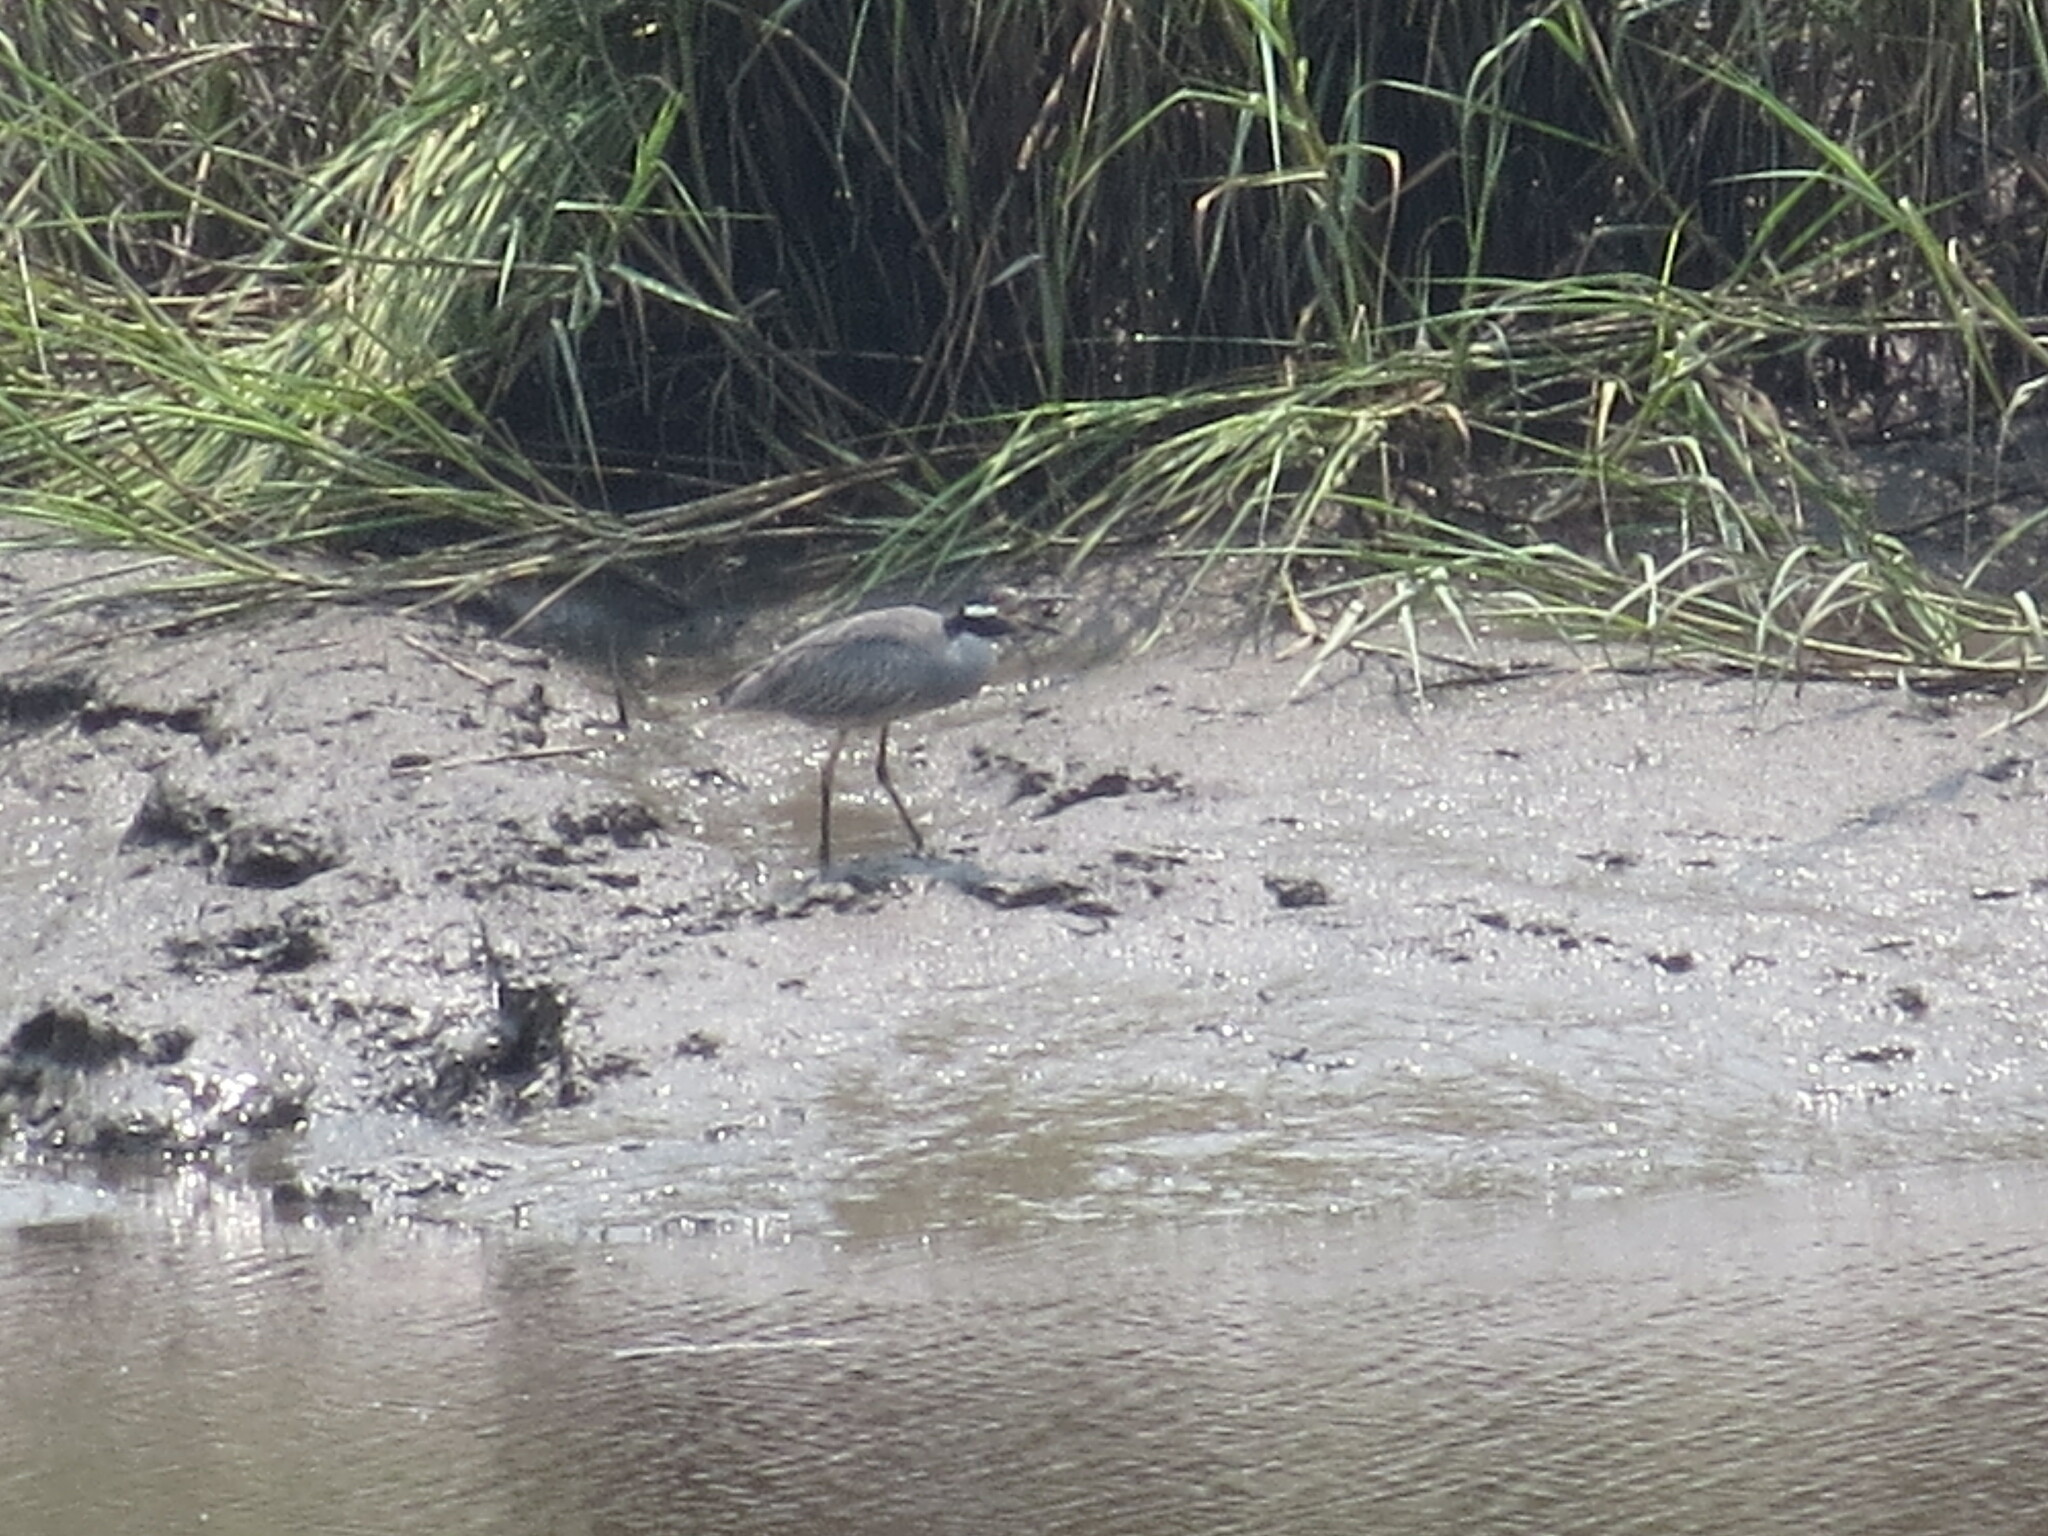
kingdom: Animalia
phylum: Chordata
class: Aves
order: Pelecaniformes
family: Ardeidae
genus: Nyctanassa
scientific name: Nyctanassa violacea
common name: Yellow-crowned night heron
